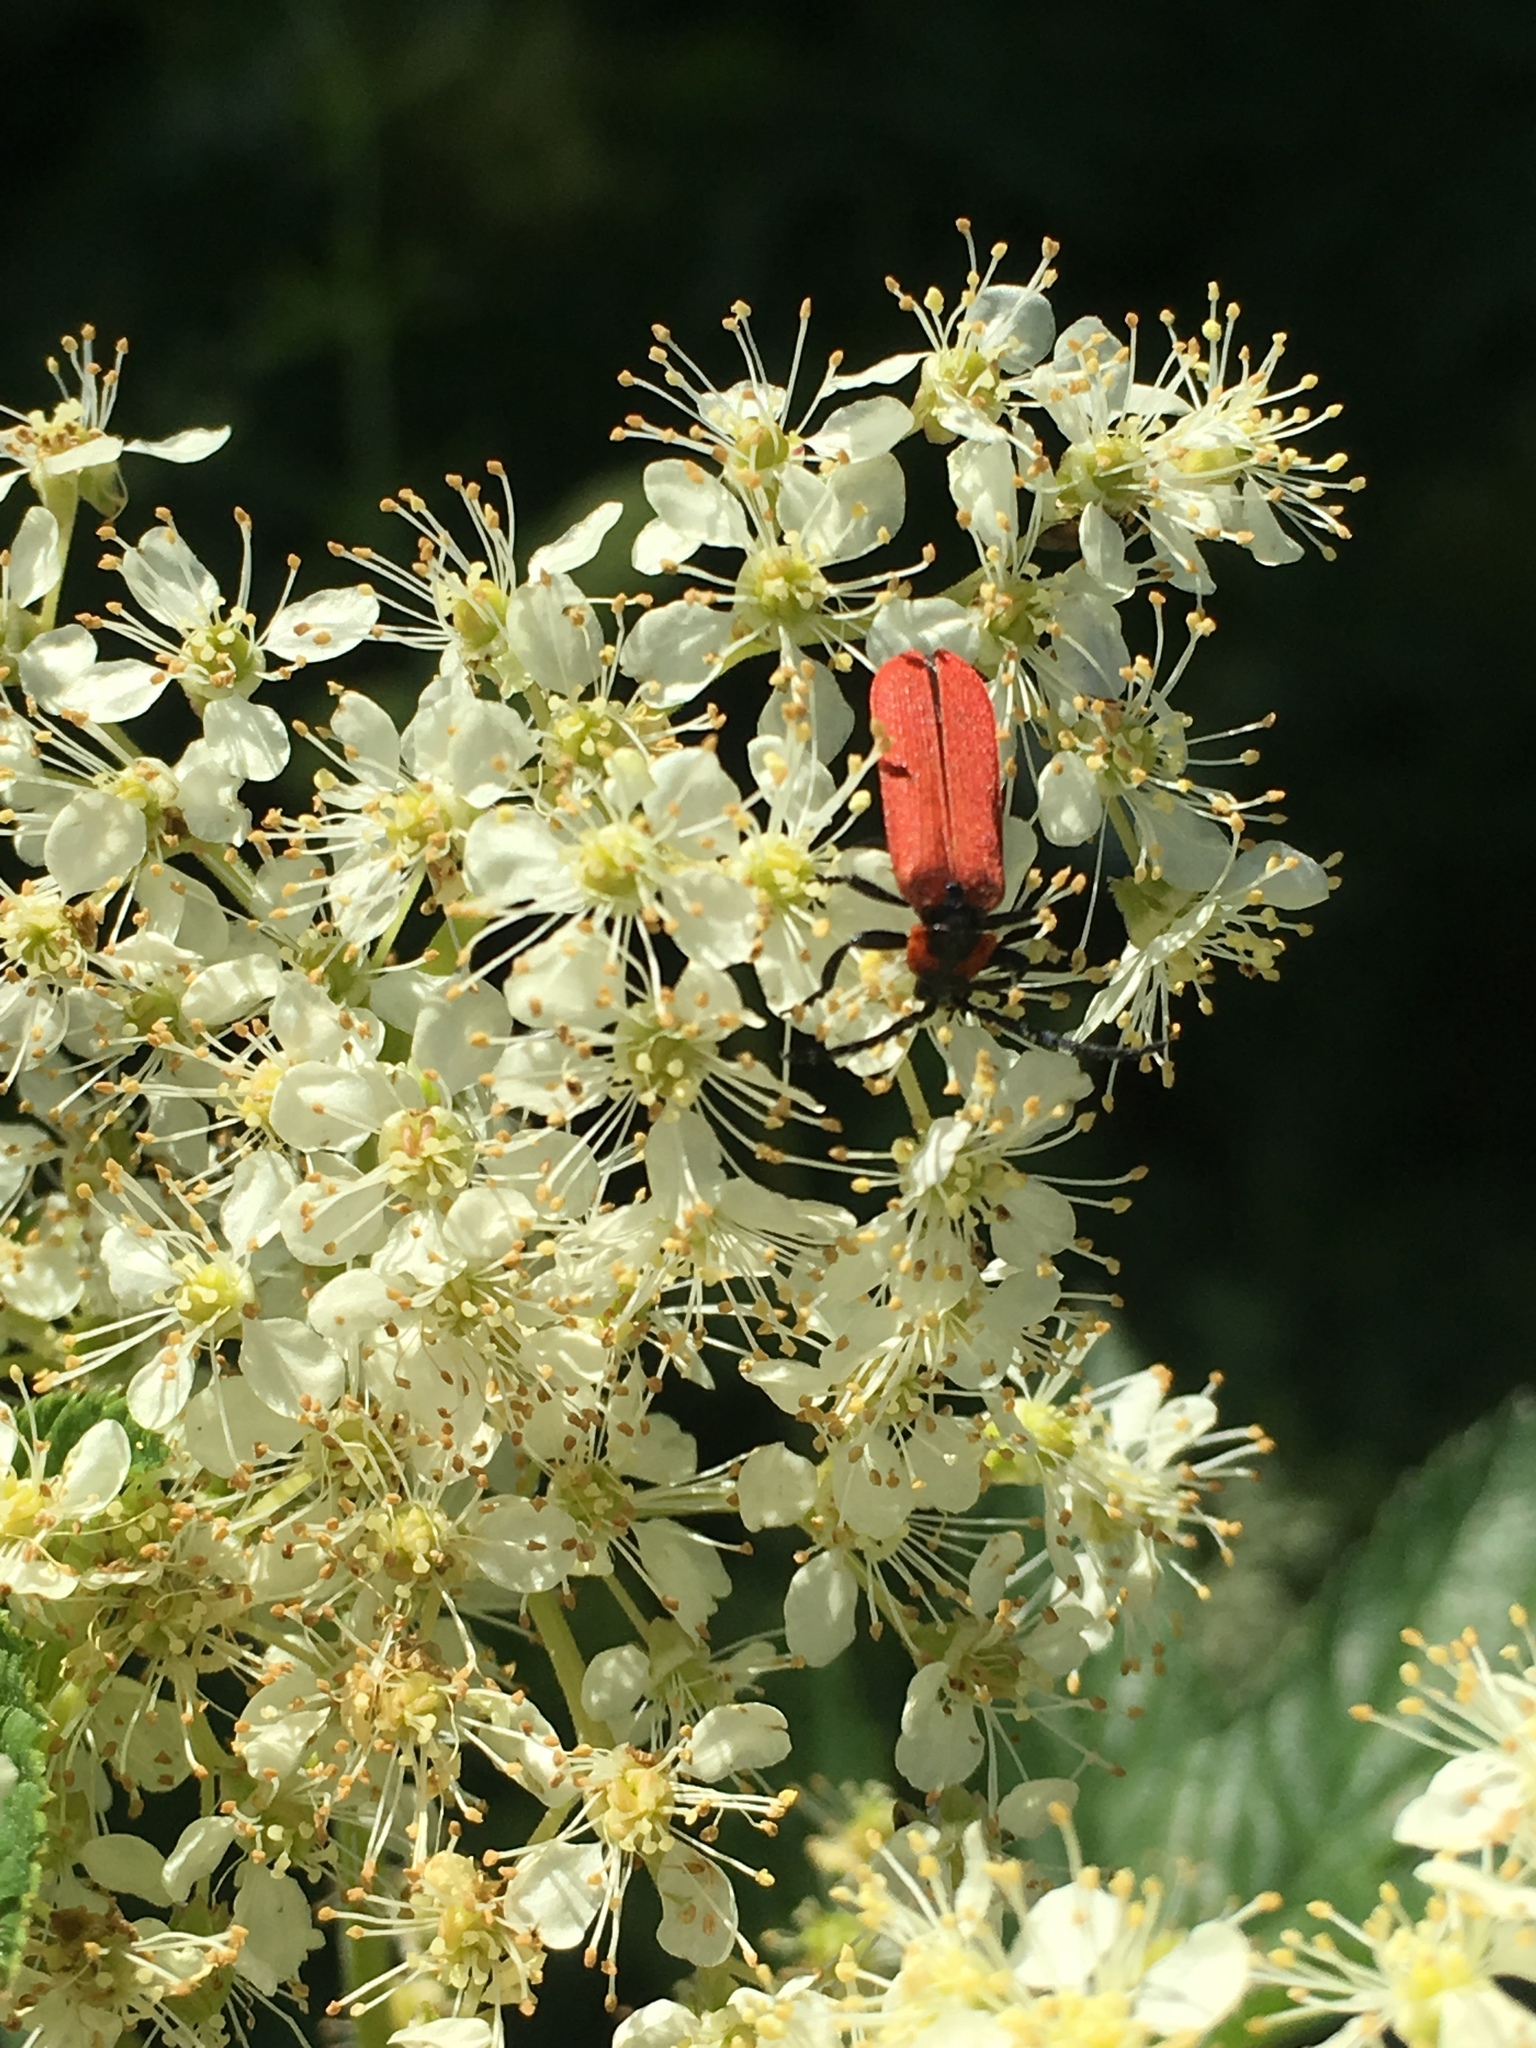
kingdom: Animalia
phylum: Arthropoda
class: Insecta
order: Coleoptera
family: Lycidae
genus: Lygistopterus
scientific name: Lygistopterus sanguineus
